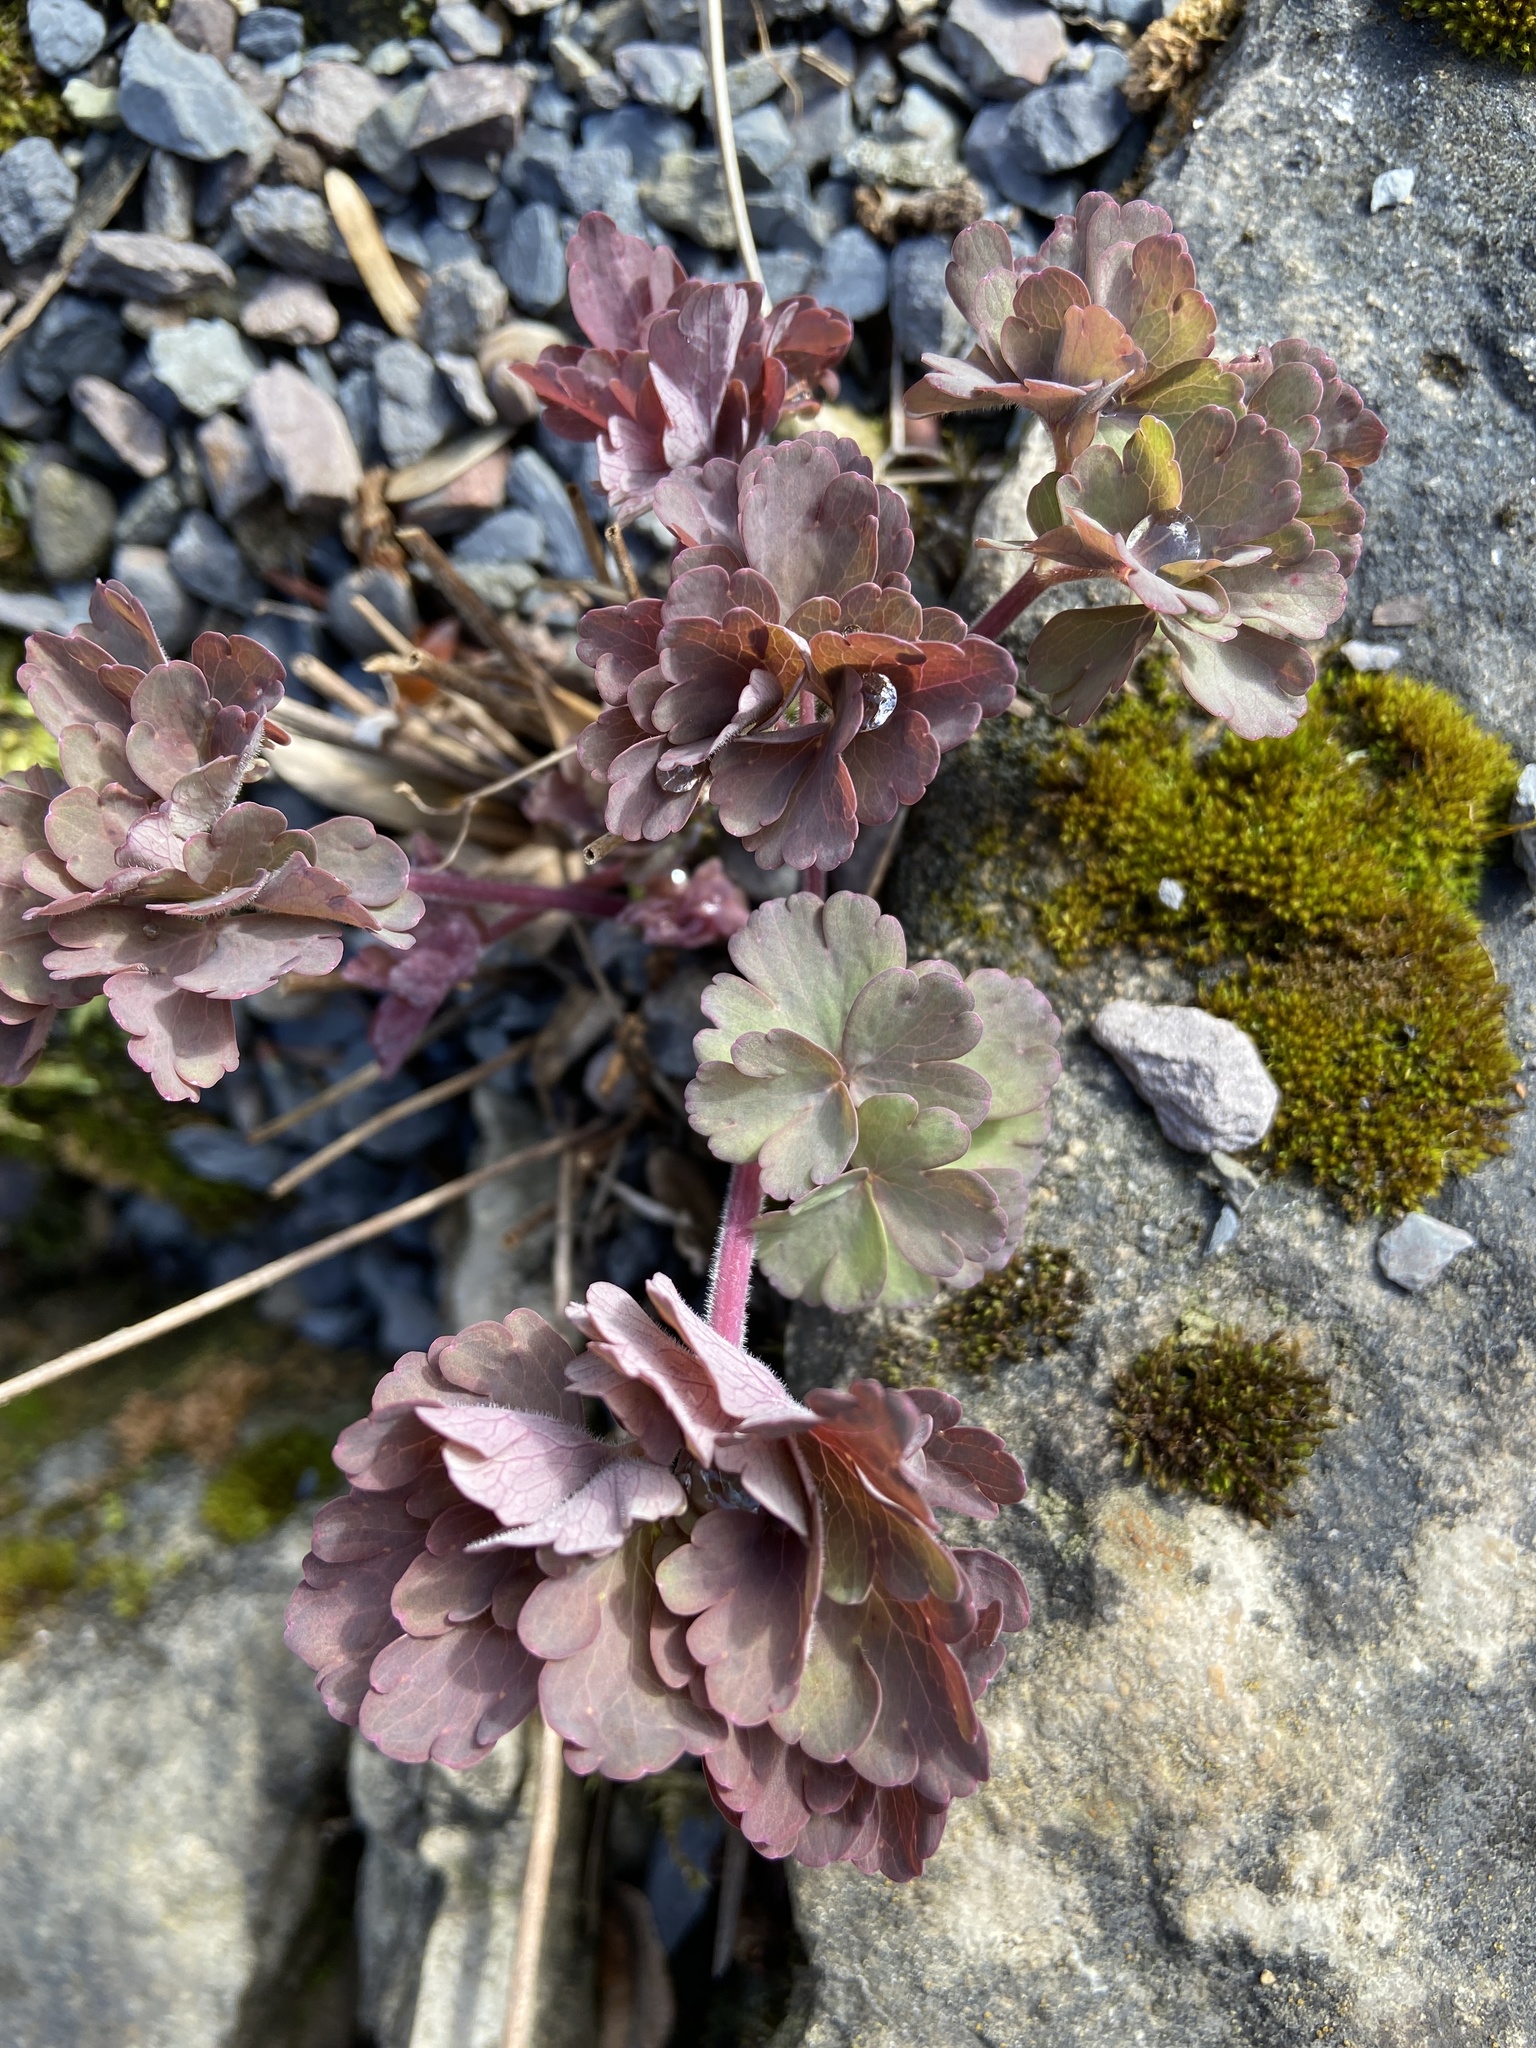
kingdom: Plantae
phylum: Tracheophyta
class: Magnoliopsida
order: Ranunculales
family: Ranunculaceae
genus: Aquilegia
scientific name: Aquilegia vulgaris
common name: Columbine
